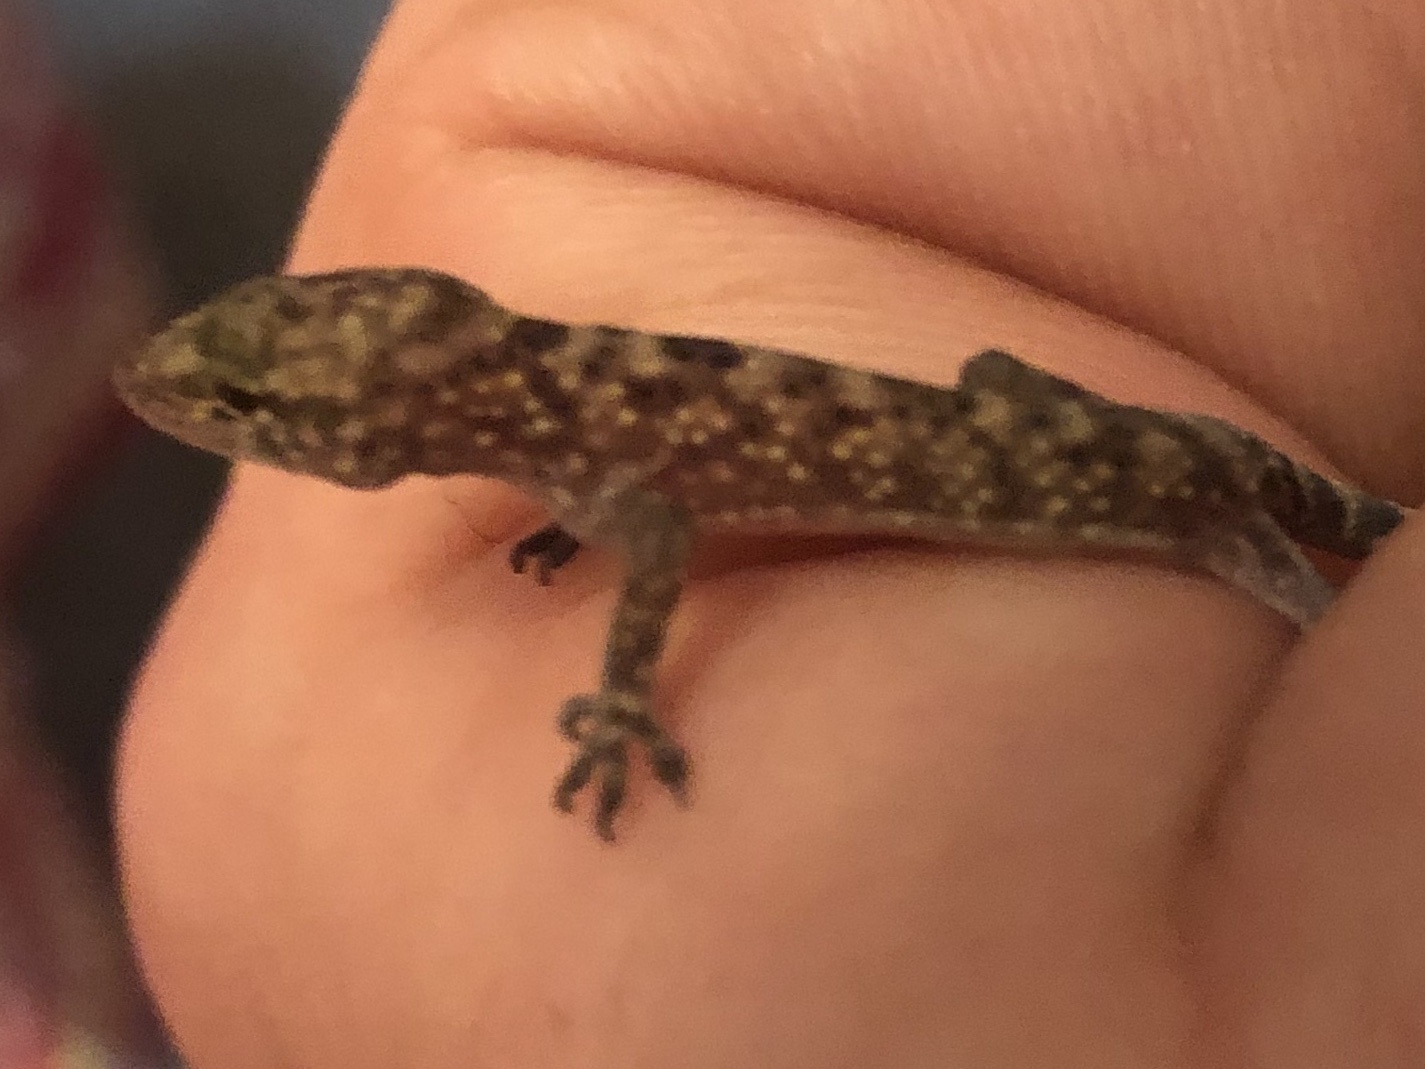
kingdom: Animalia
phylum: Chordata
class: Squamata
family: Gekkonidae
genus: Hemidactylus
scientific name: Hemidactylus turcicus
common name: Turkish gecko
